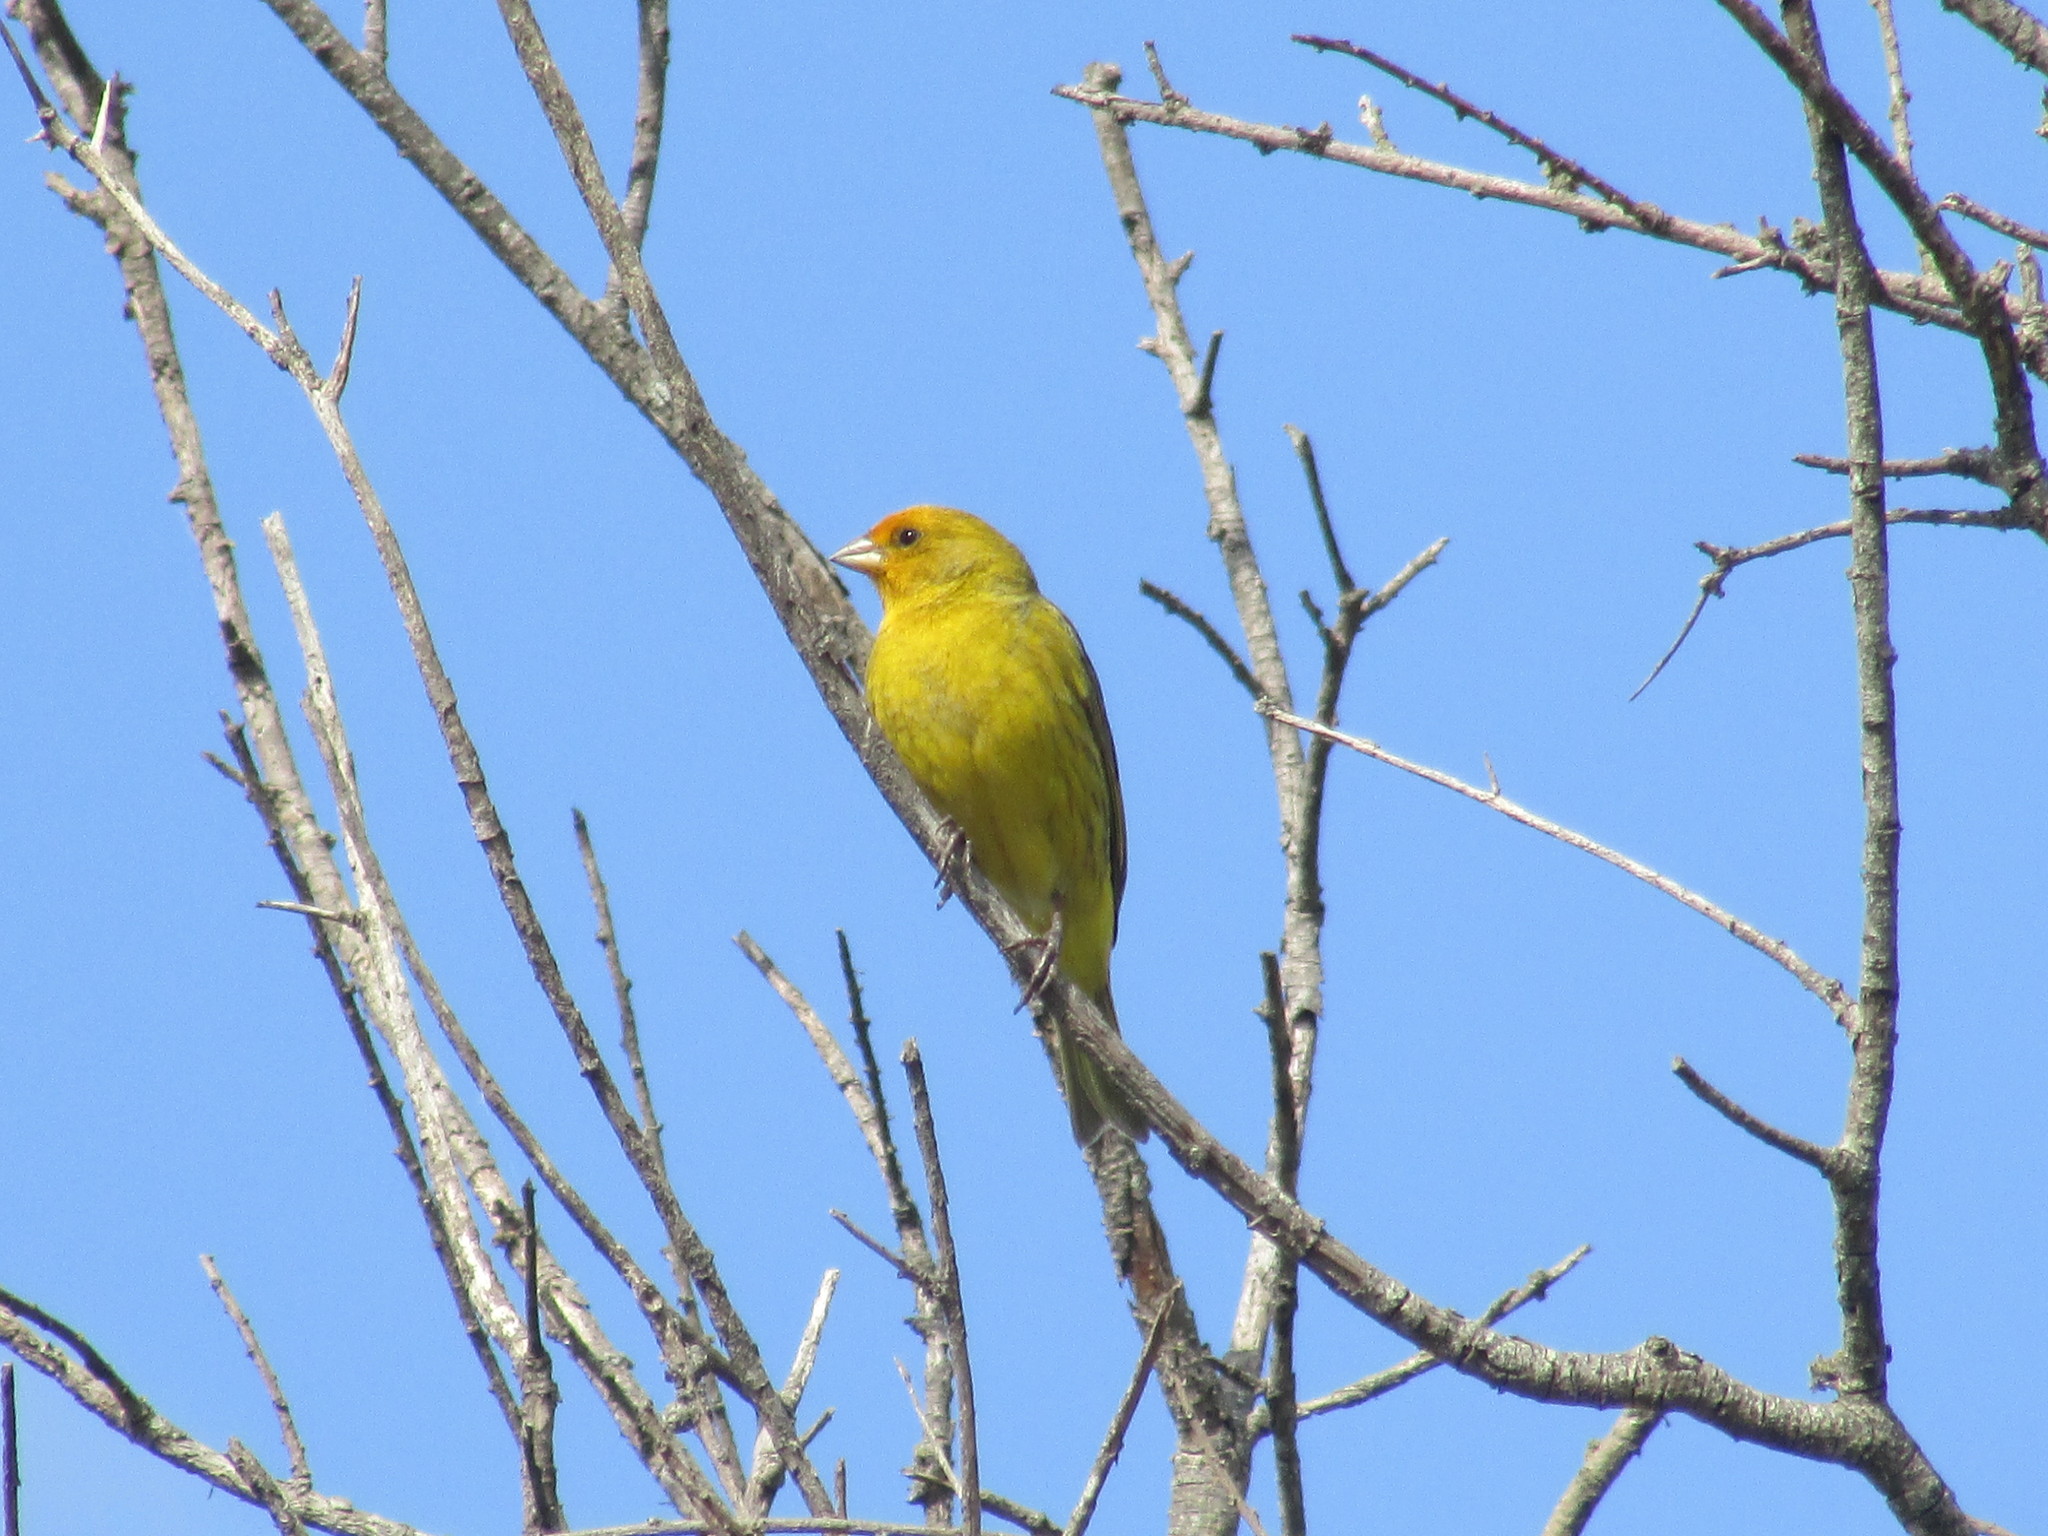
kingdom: Animalia
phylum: Chordata
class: Aves
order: Passeriformes
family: Thraupidae
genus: Sicalis
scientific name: Sicalis flaveola
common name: Saffron finch
